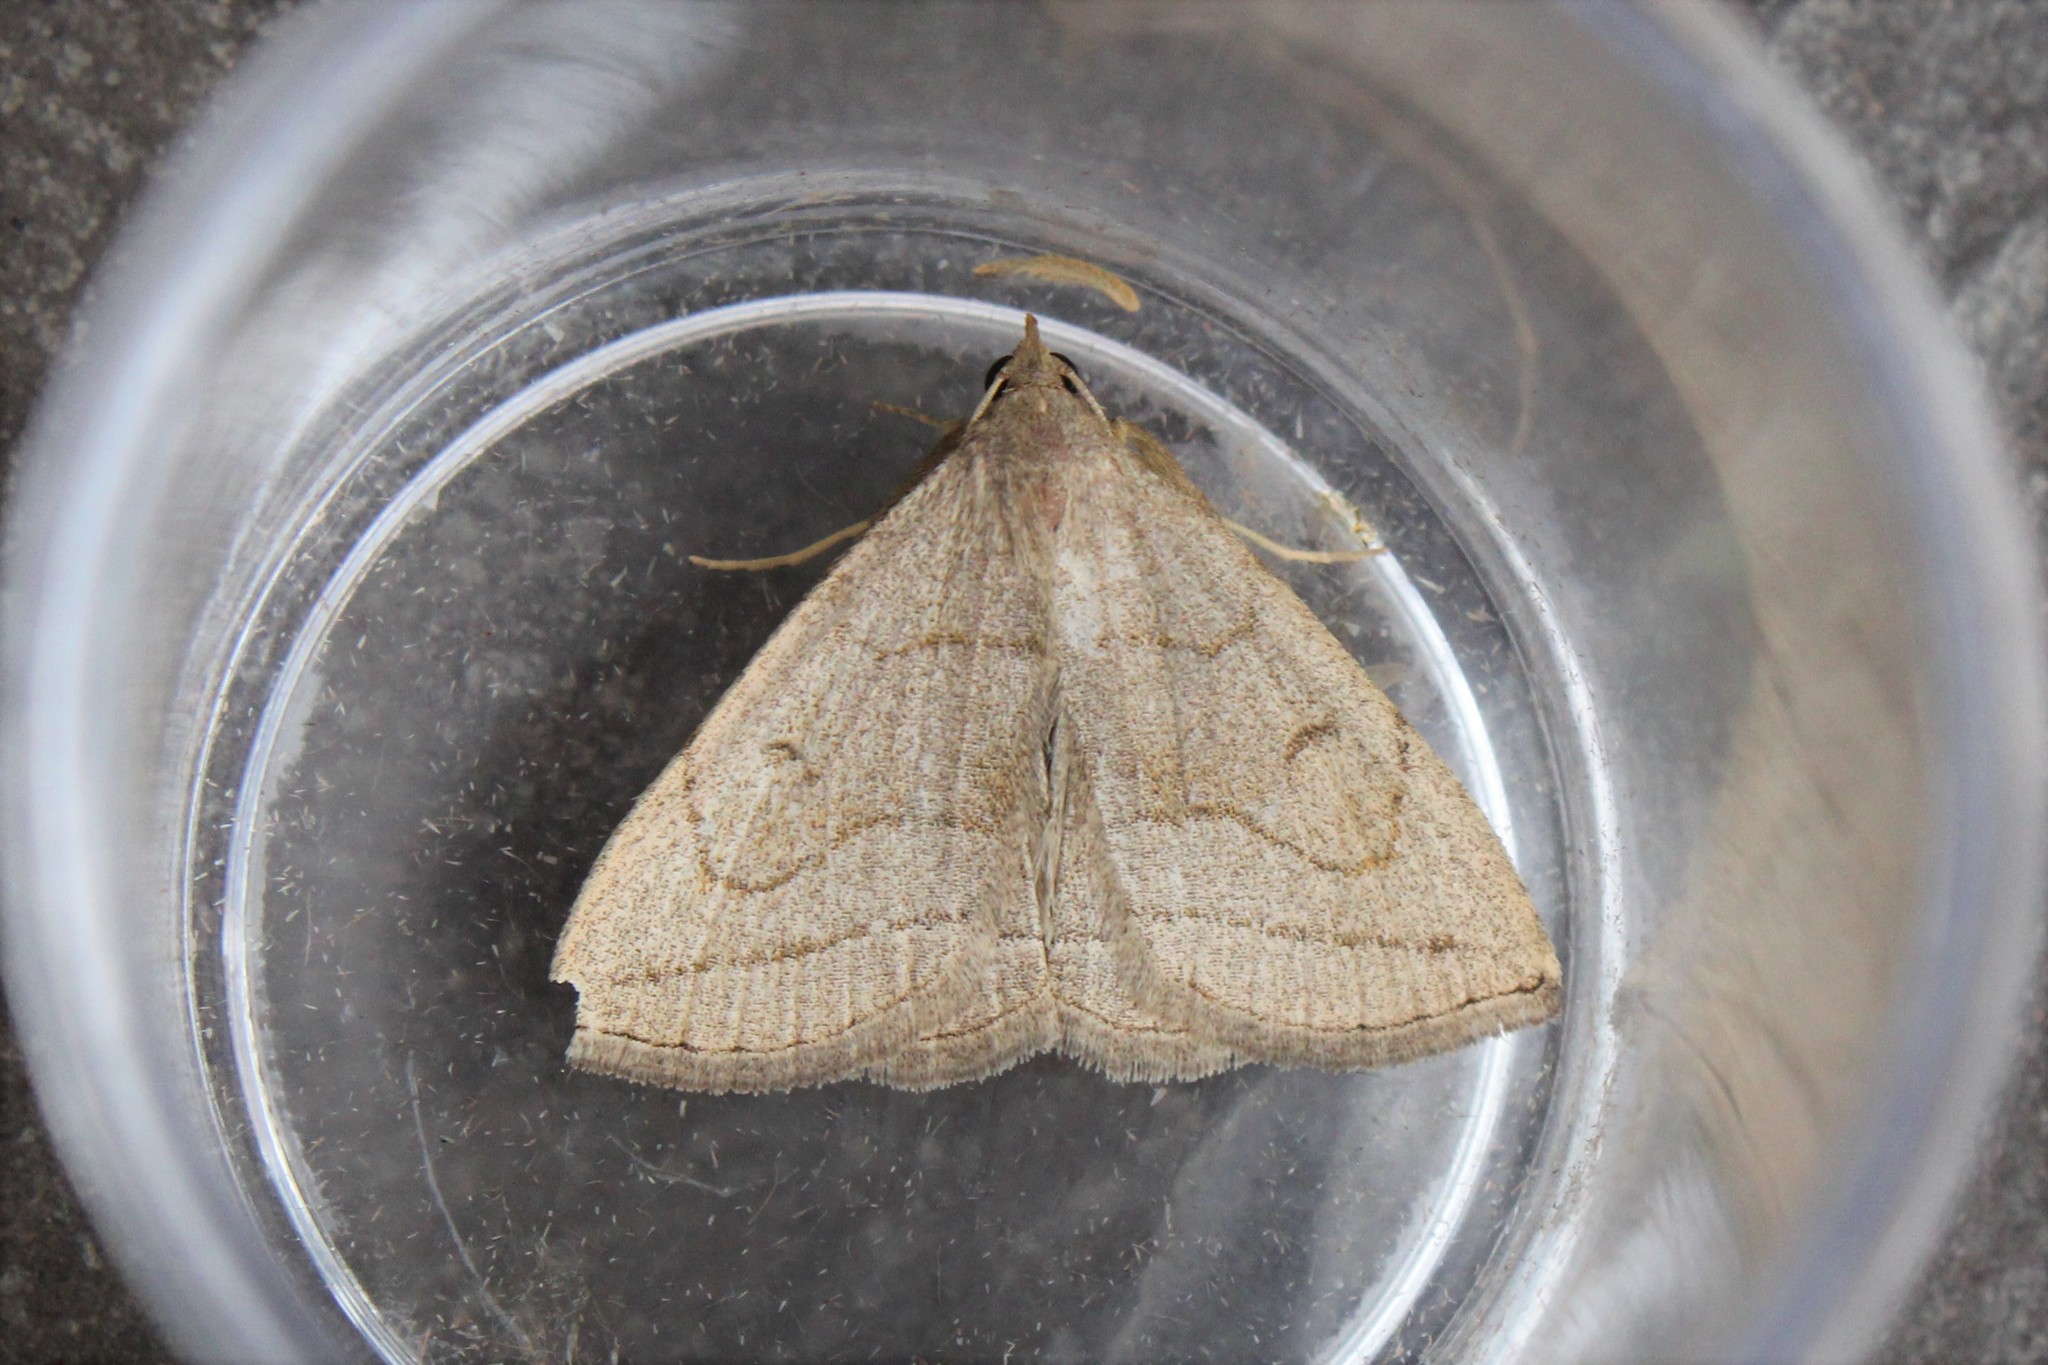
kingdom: Animalia
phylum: Arthropoda
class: Insecta
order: Lepidoptera
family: Erebidae
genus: Zanclognatha
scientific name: Zanclognatha pedipilalis
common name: Grayish fan-foot
